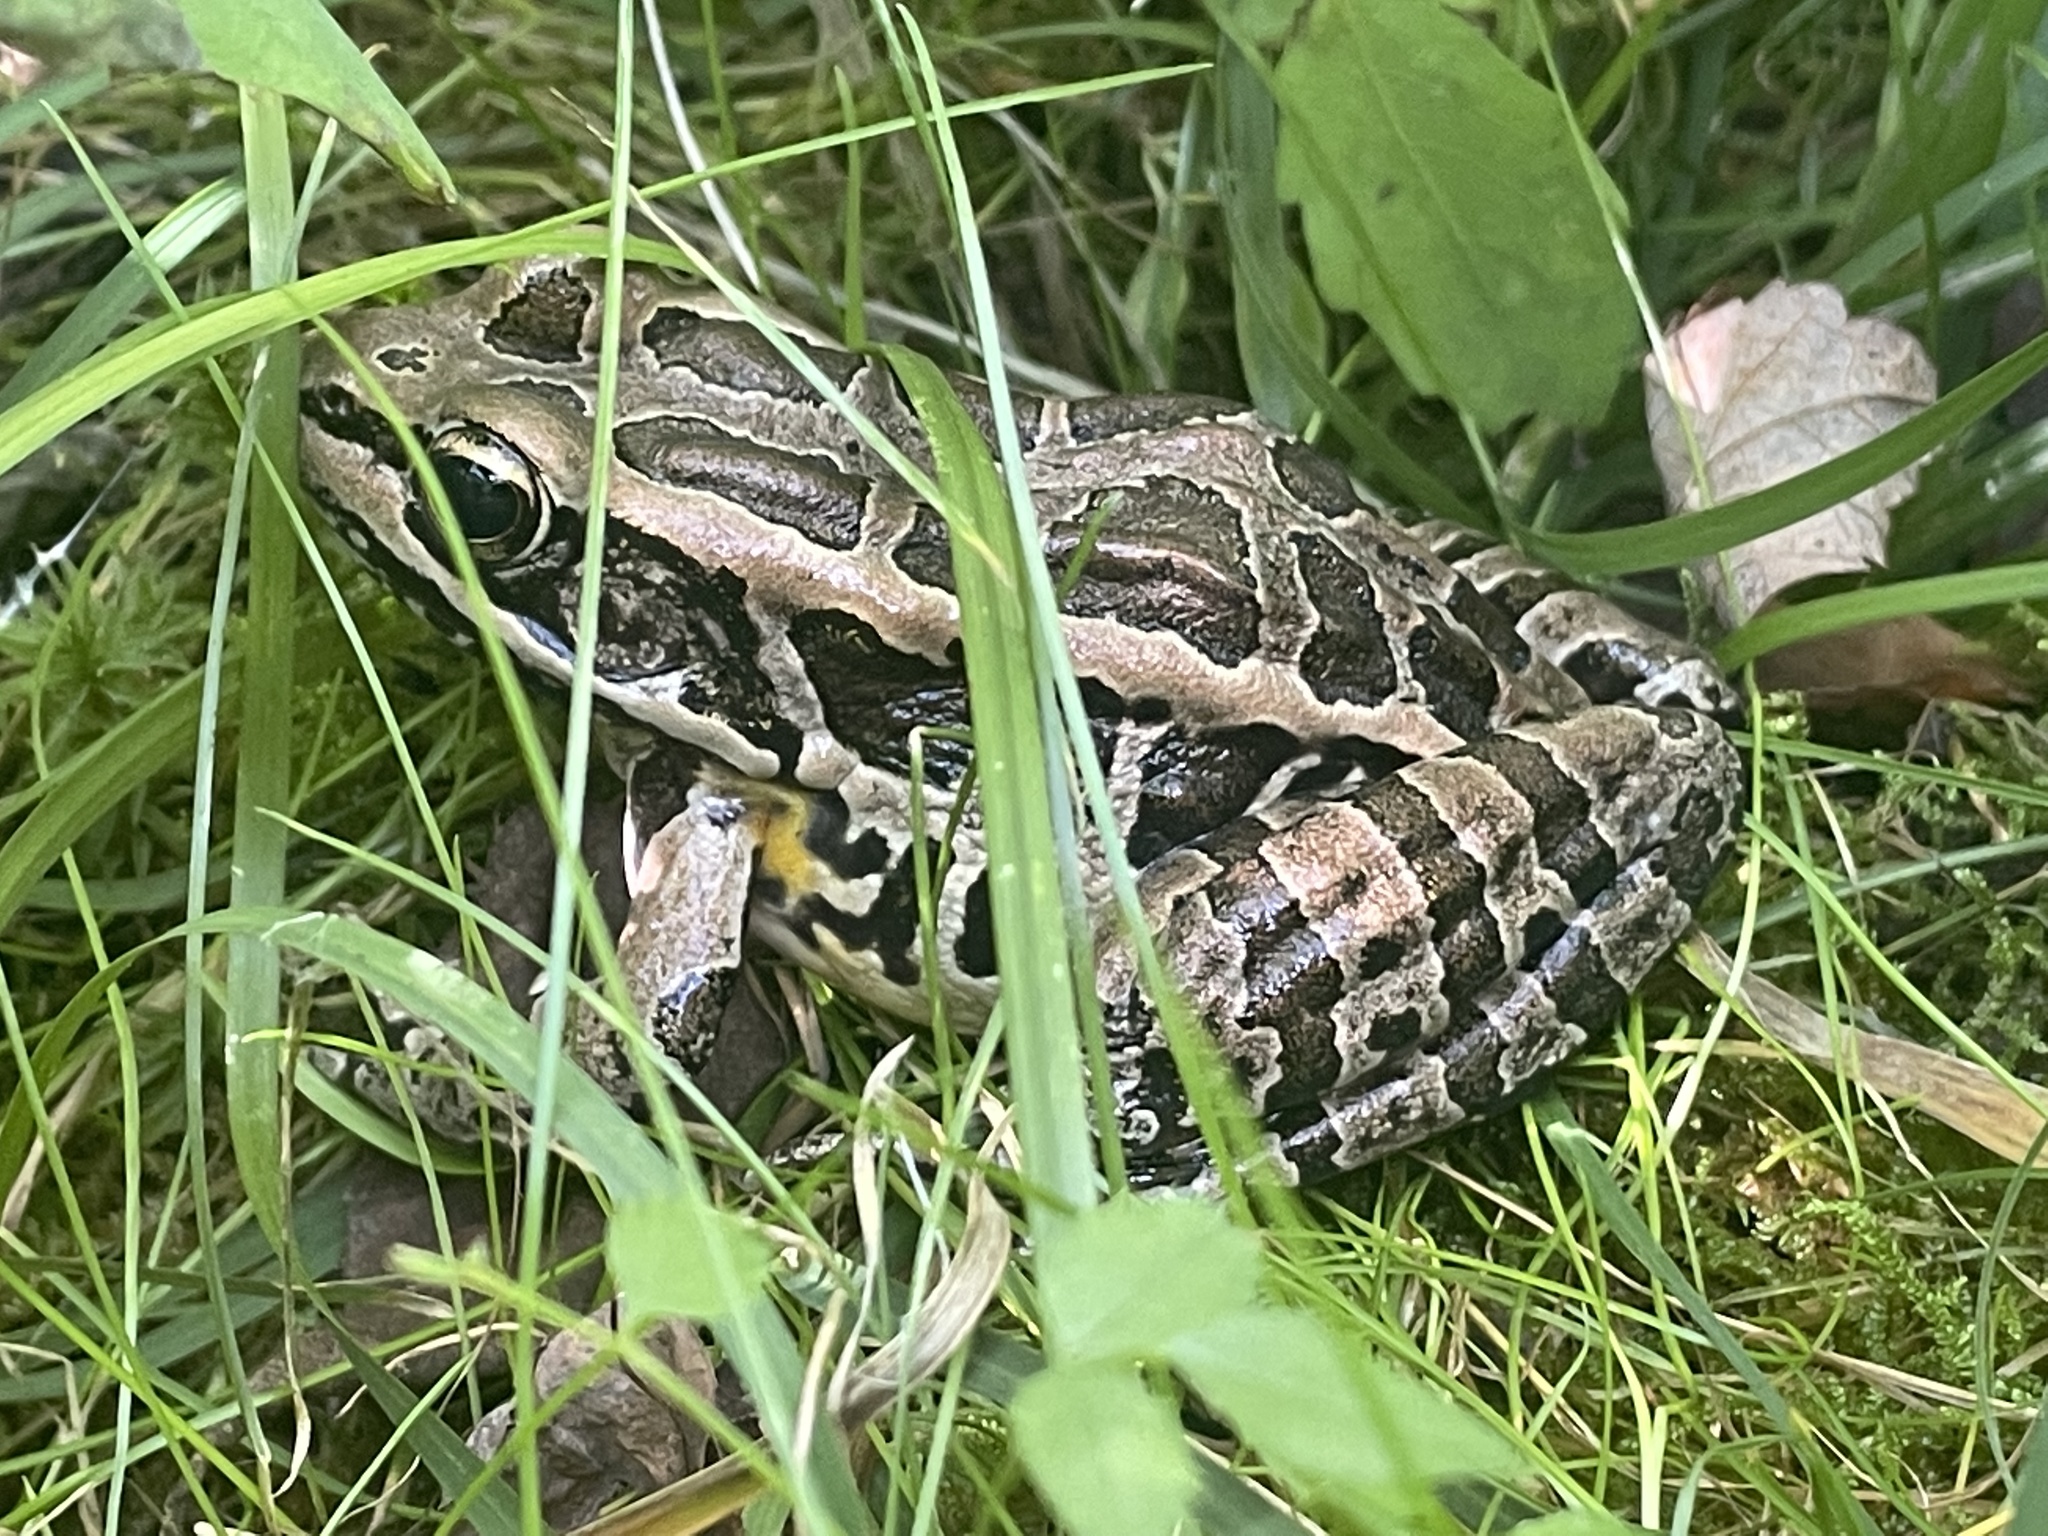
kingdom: Animalia
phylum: Chordata
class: Amphibia
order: Anura
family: Ranidae
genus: Lithobates
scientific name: Lithobates palustris
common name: Pickerel frog
